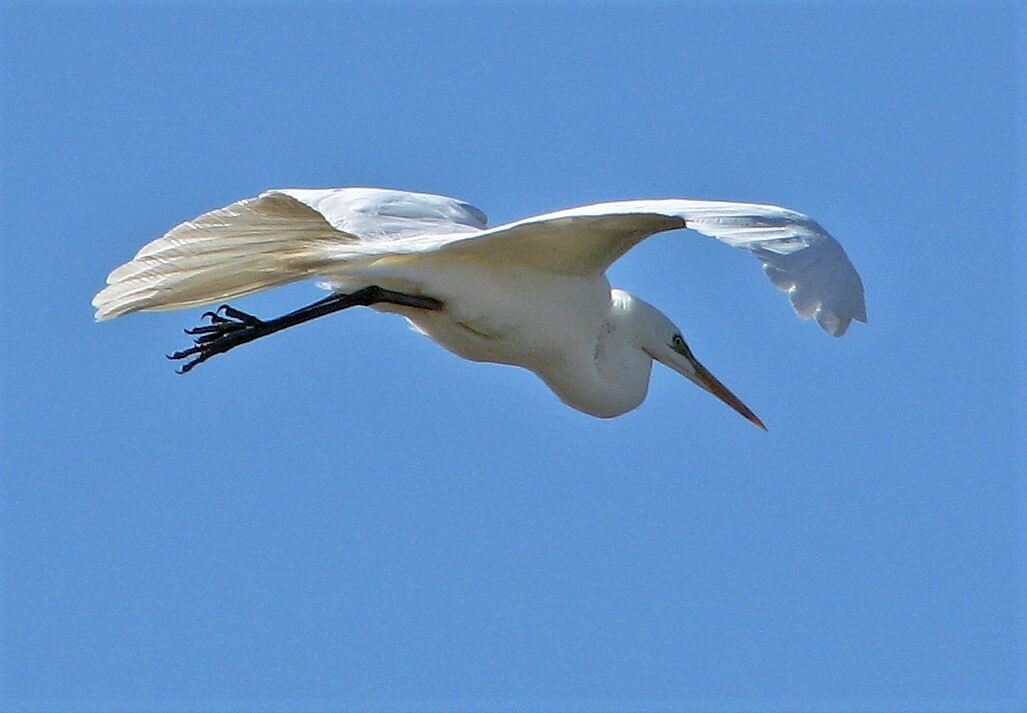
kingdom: Animalia
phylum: Chordata
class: Aves
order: Pelecaniformes
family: Ardeidae
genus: Ardea
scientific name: Ardea alba
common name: Great egret
